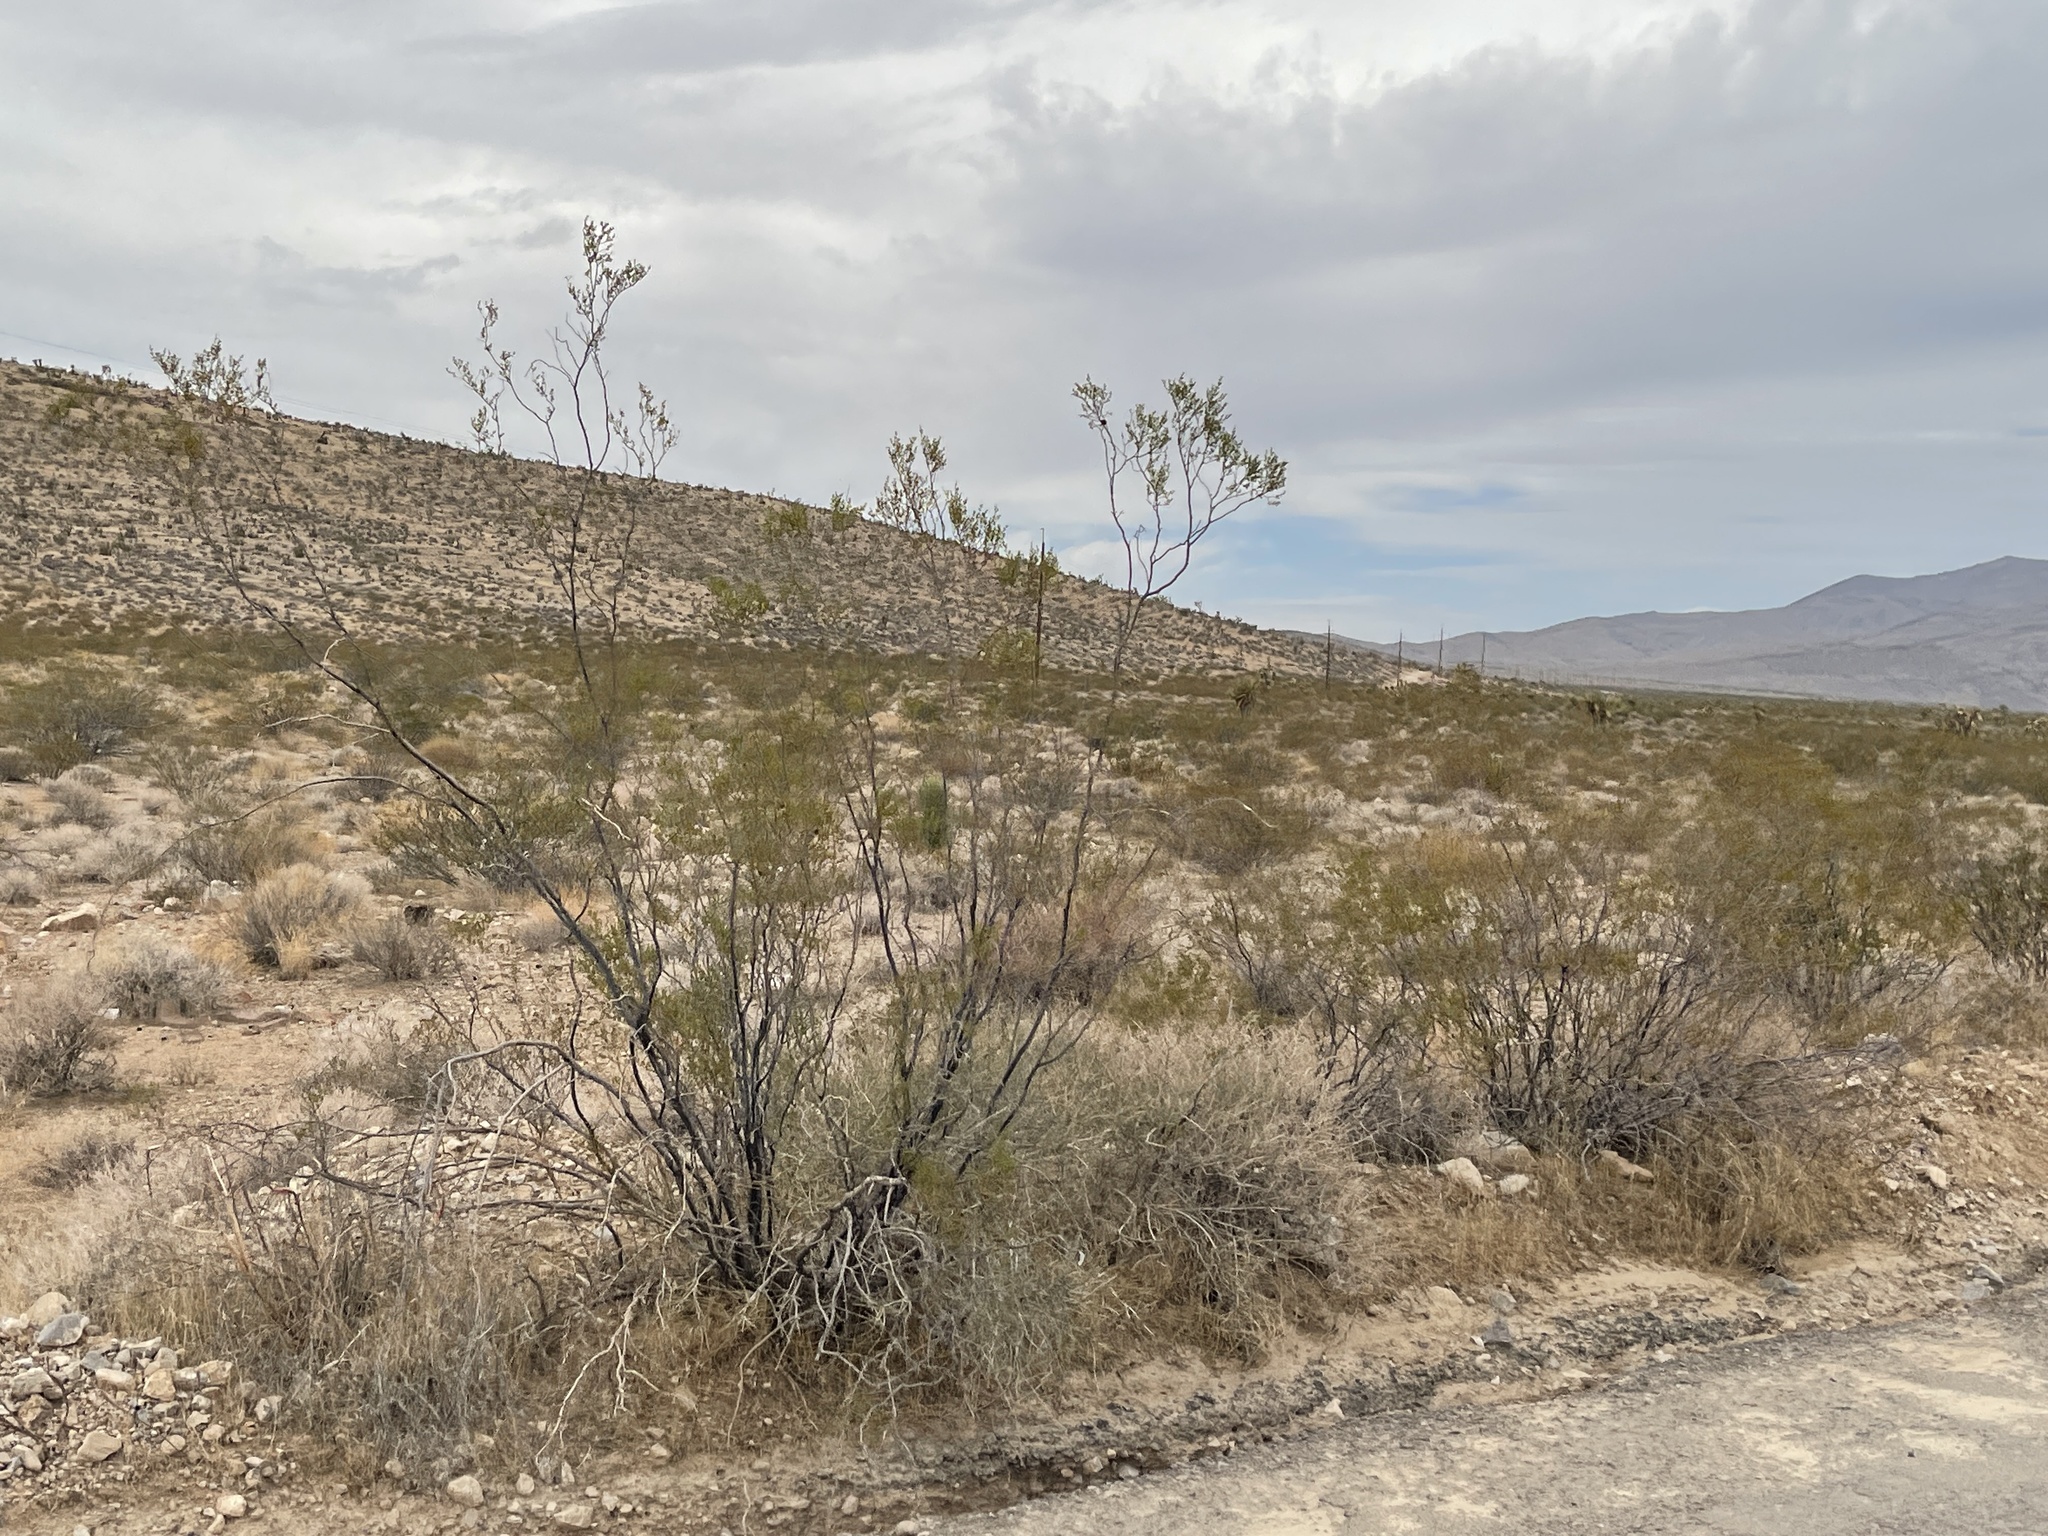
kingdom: Plantae
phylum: Tracheophyta
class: Magnoliopsida
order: Zygophyllales
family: Zygophyllaceae
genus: Larrea
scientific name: Larrea tridentata
